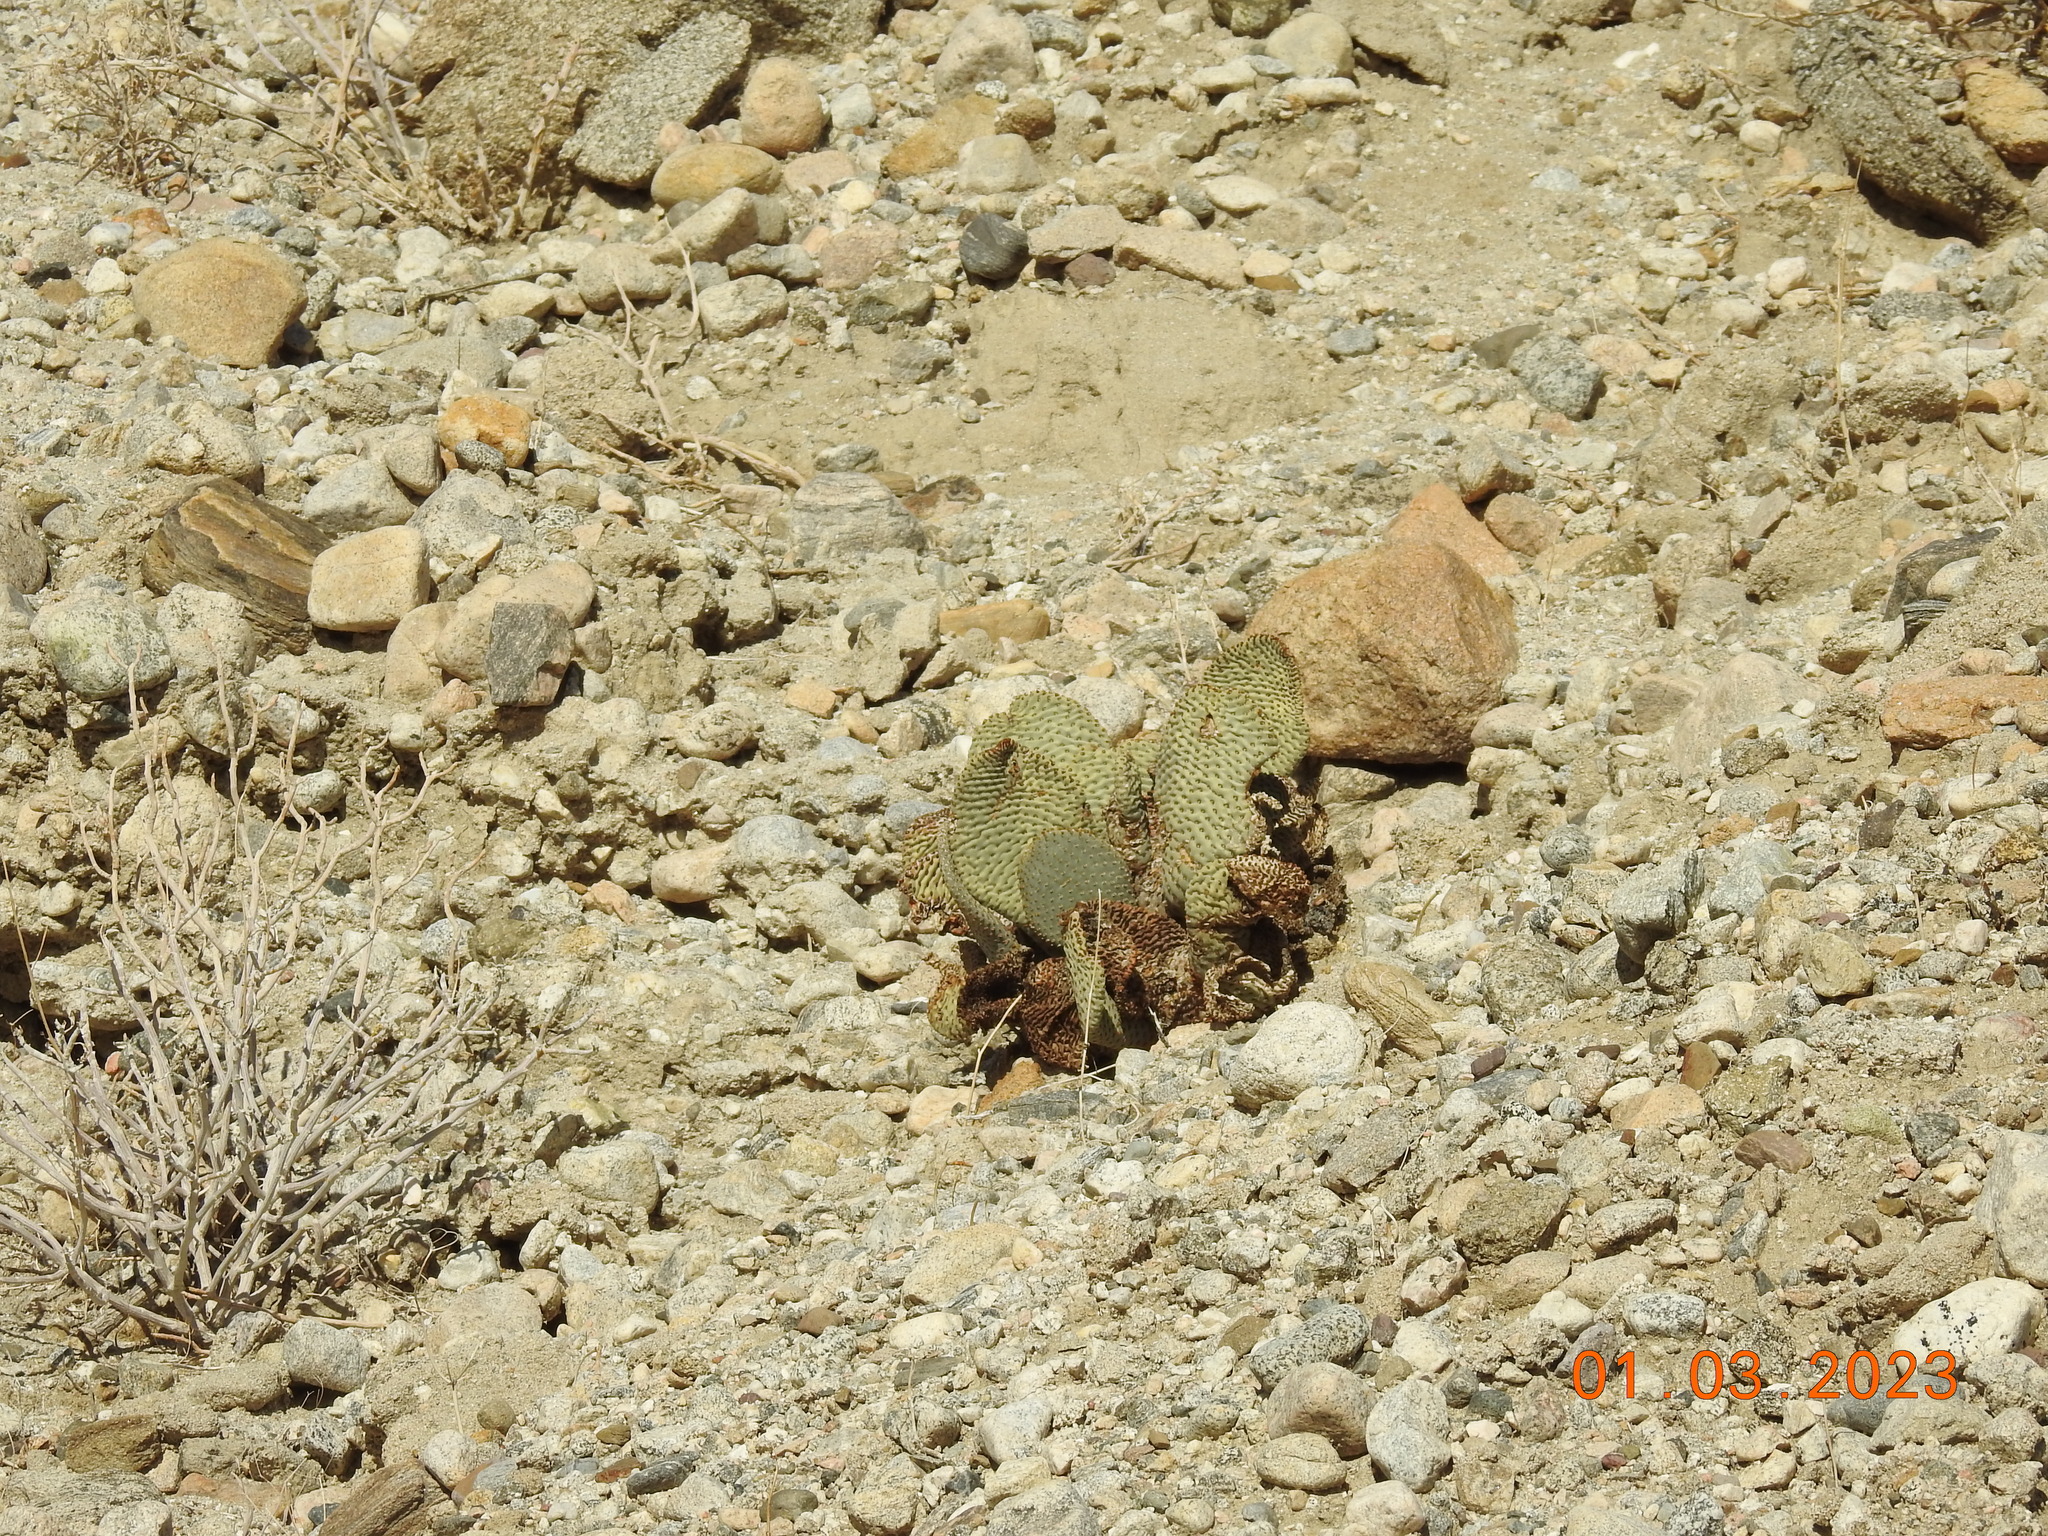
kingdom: Plantae
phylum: Tracheophyta
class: Magnoliopsida
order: Caryophyllales
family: Cactaceae
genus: Opuntia
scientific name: Opuntia basilaris
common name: Beavertail prickly-pear
